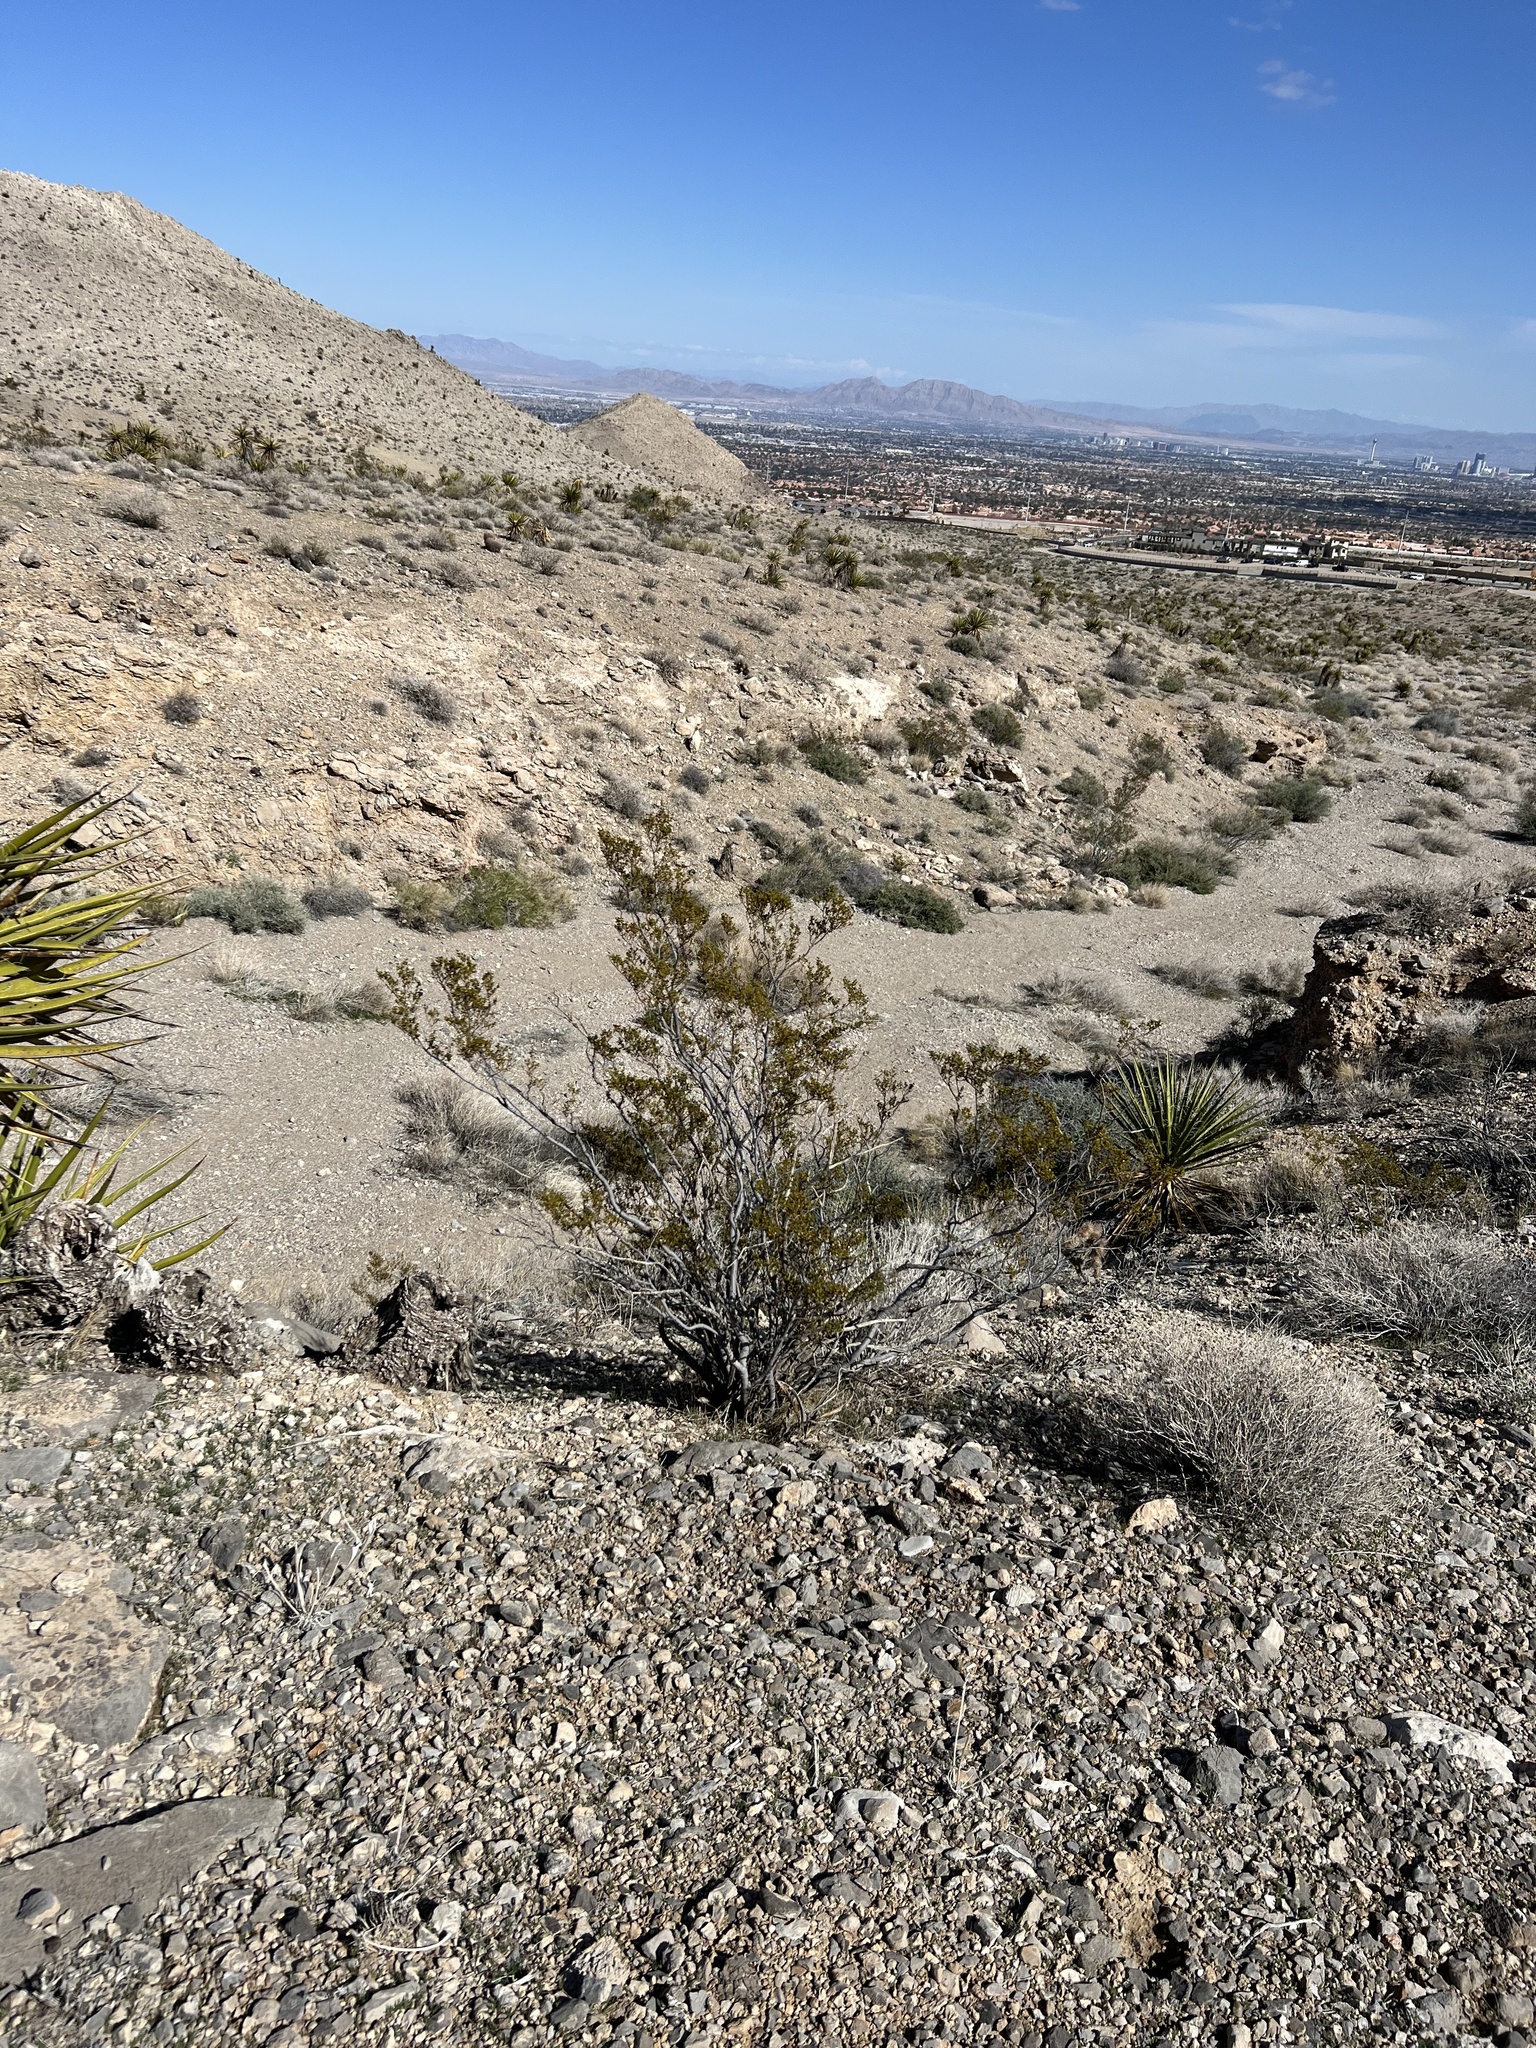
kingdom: Plantae
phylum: Tracheophyta
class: Magnoliopsida
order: Zygophyllales
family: Zygophyllaceae
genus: Larrea
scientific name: Larrea tridentata
